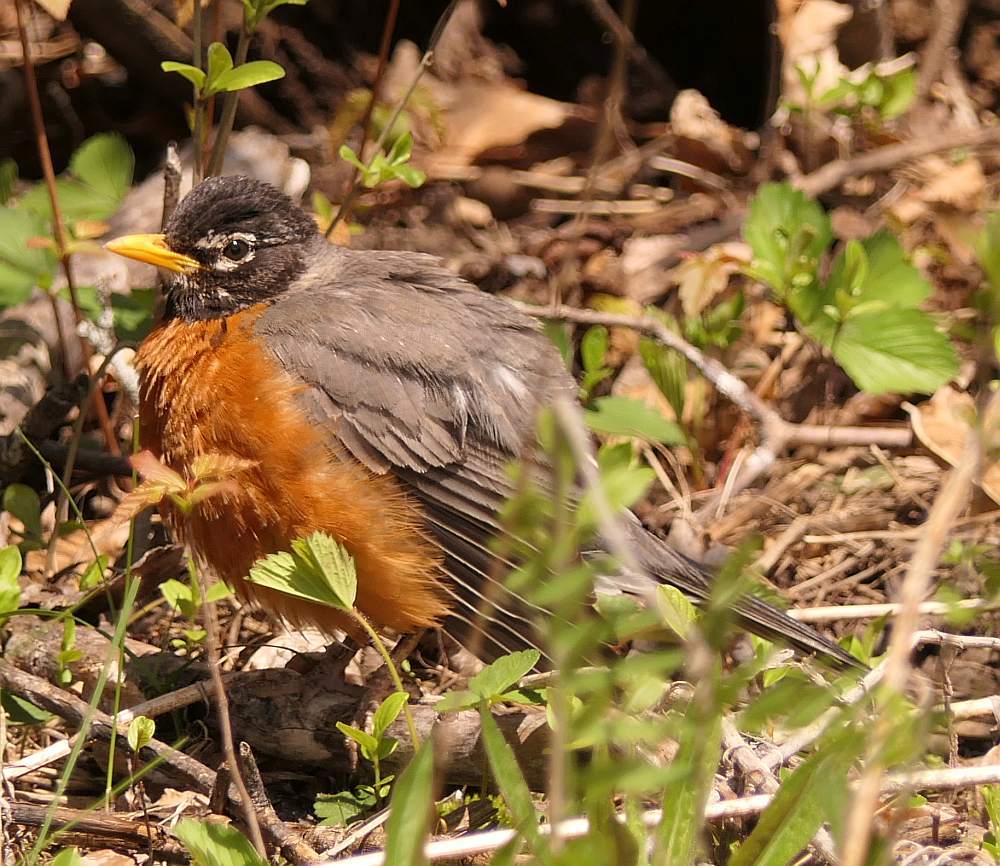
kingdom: Animalia
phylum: Chordata
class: Aves
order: Passeriformes
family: Turdidae
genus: Turdus
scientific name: Turdus migratorius
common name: American robin
